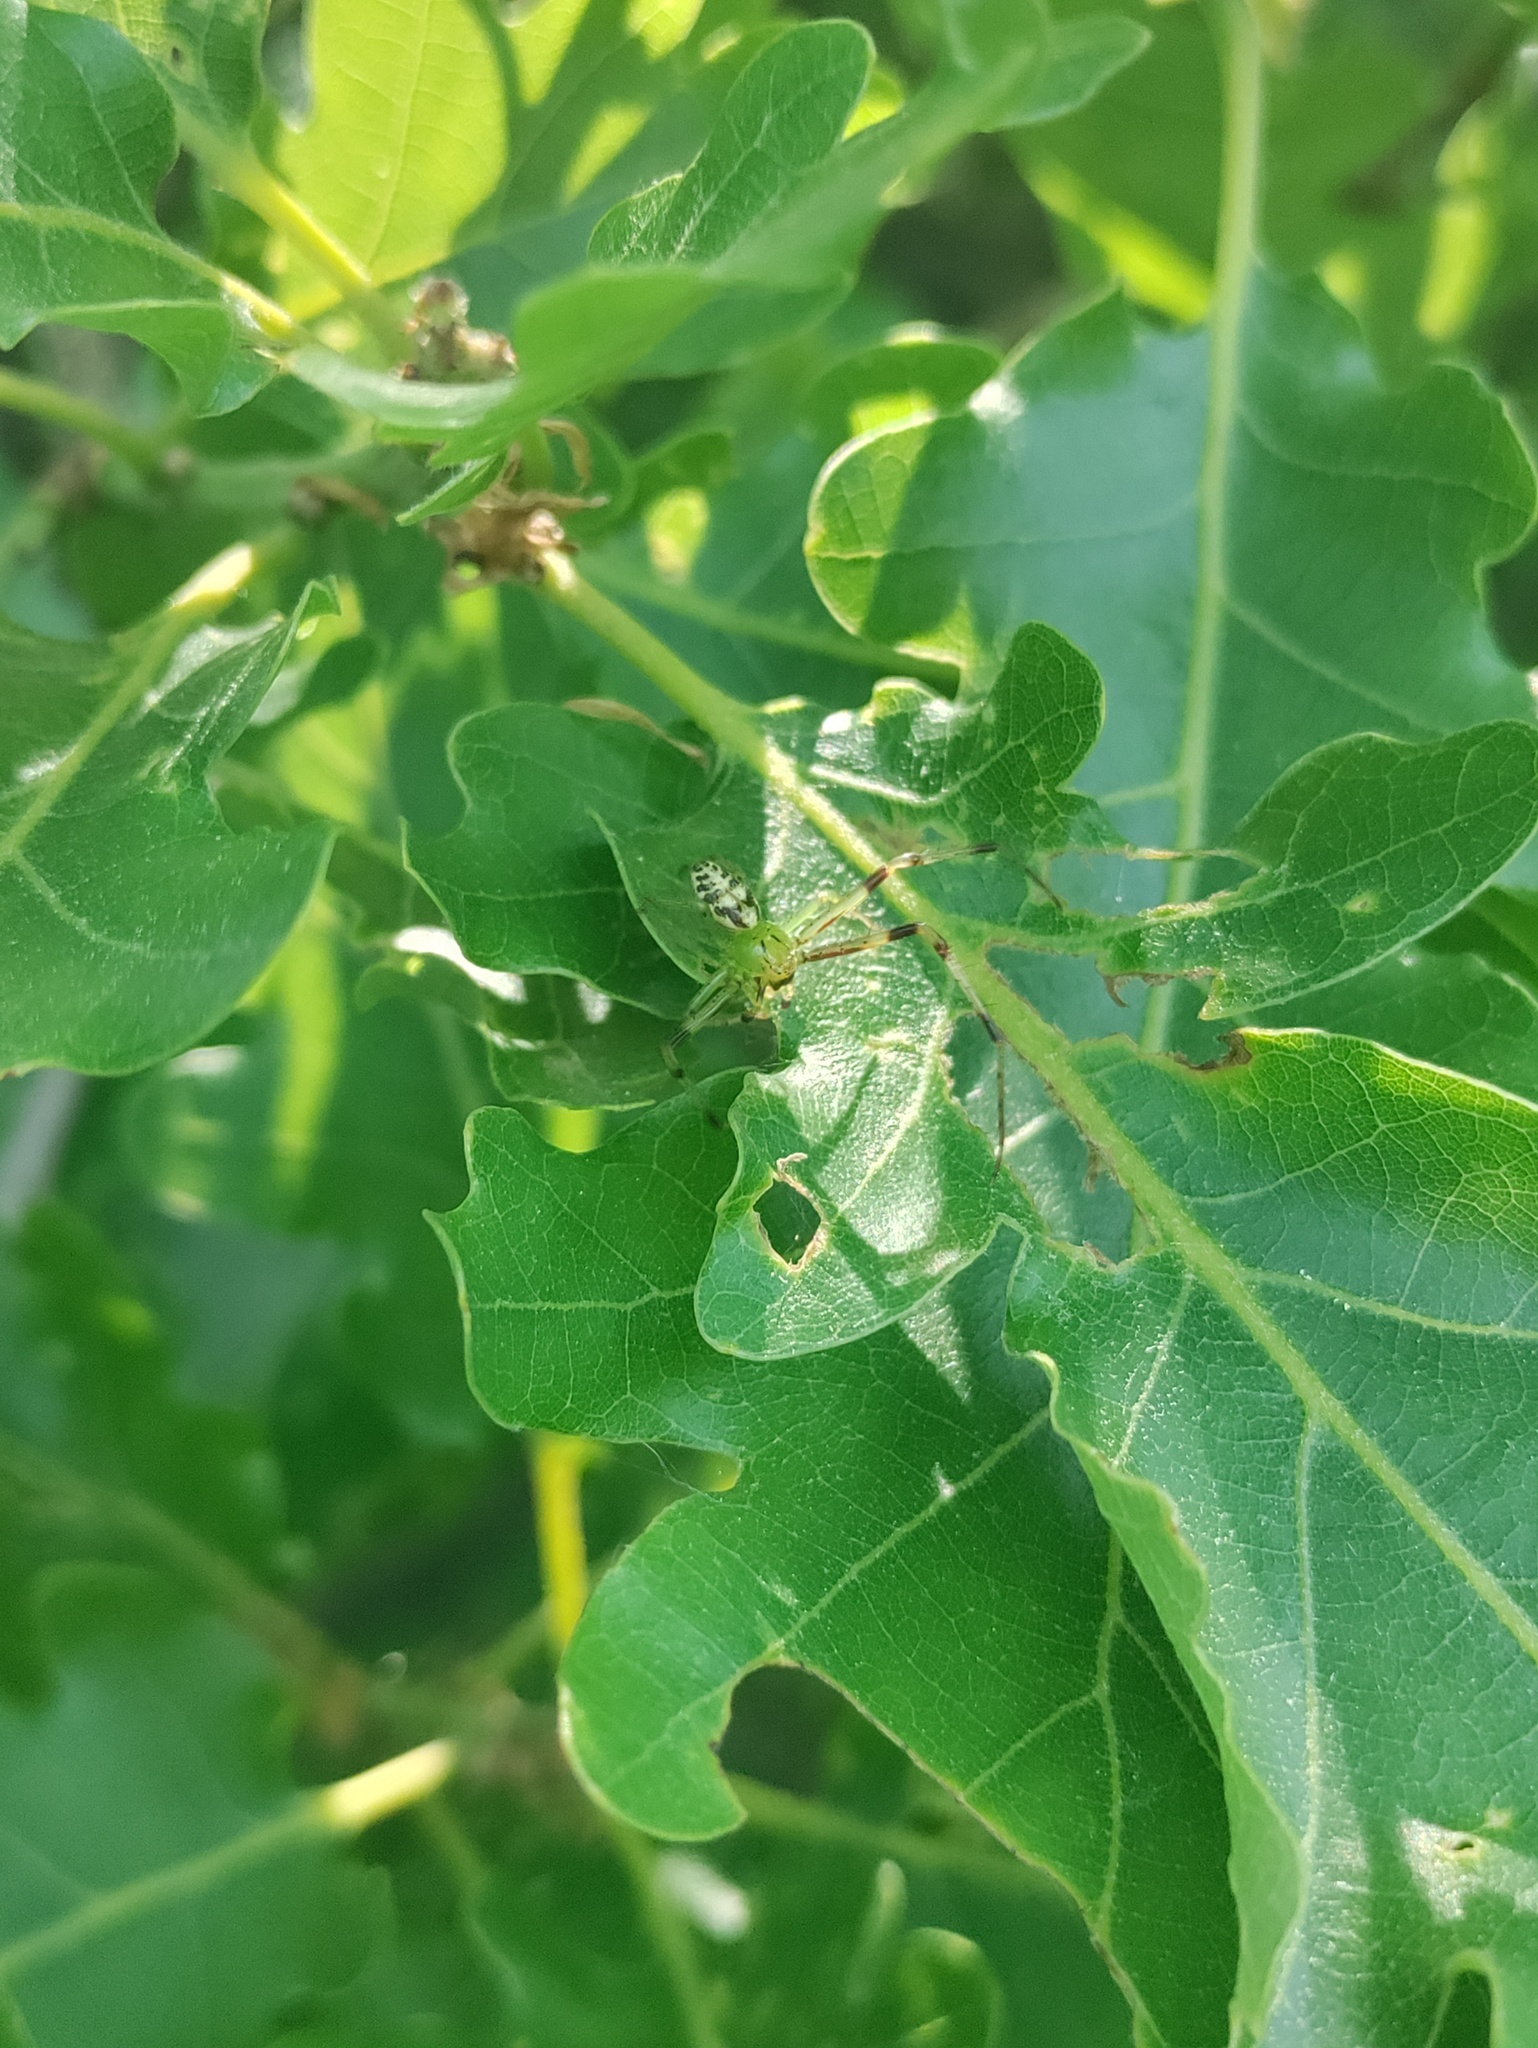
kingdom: Animalia
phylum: Arthropoda
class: Arachnida
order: Araneae
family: Thomisidae
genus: Diaea
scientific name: Diaea livens
